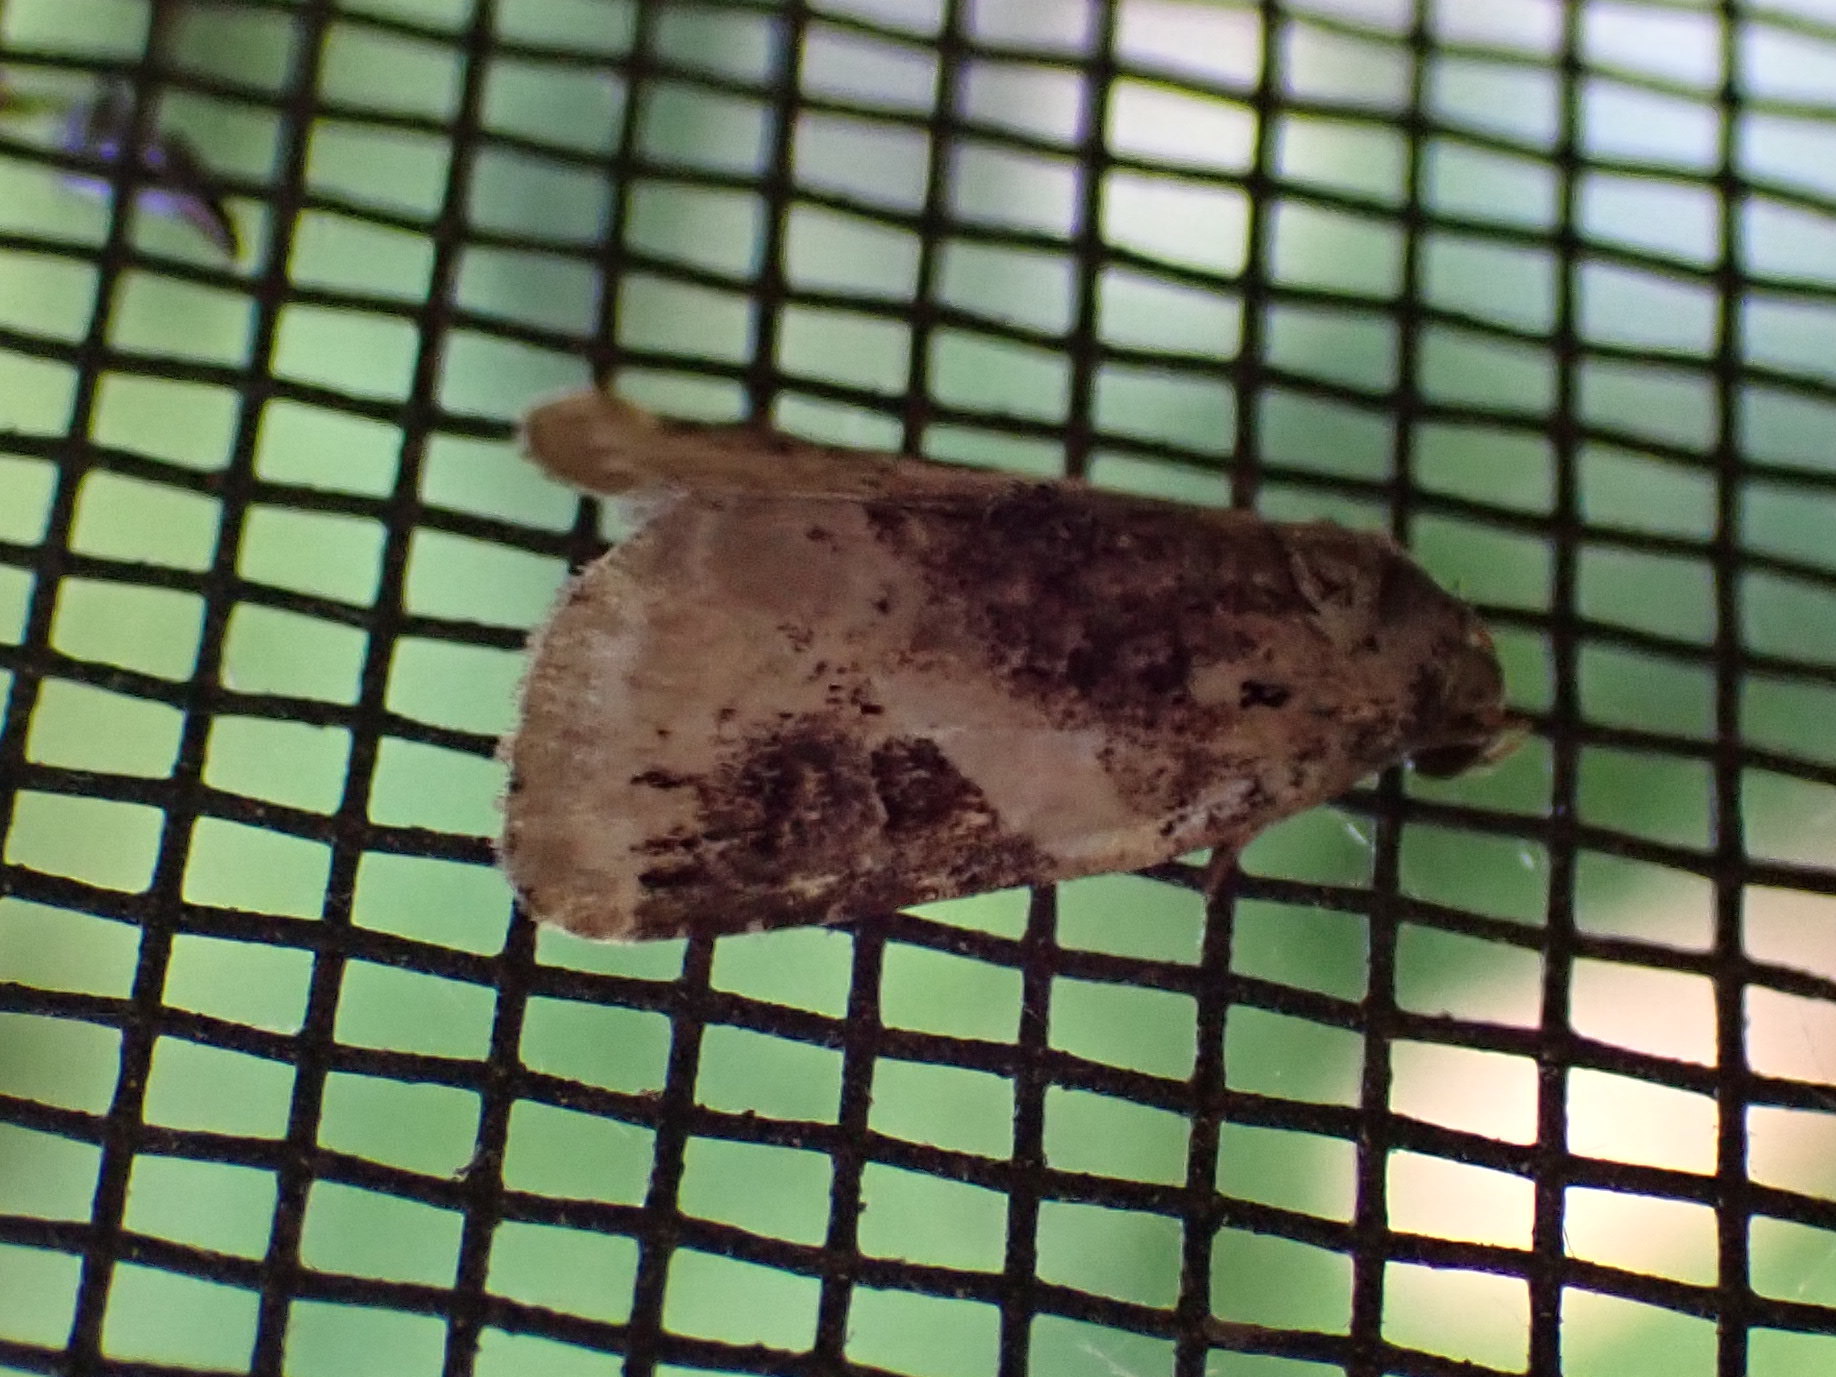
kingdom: Animalia
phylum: Arthropoda
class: Insecta
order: Lepidoptera
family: Noctuidae
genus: Pseudeustrotia
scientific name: Pseudeustrotia carneola
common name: Pink-barred lithacodia moth
